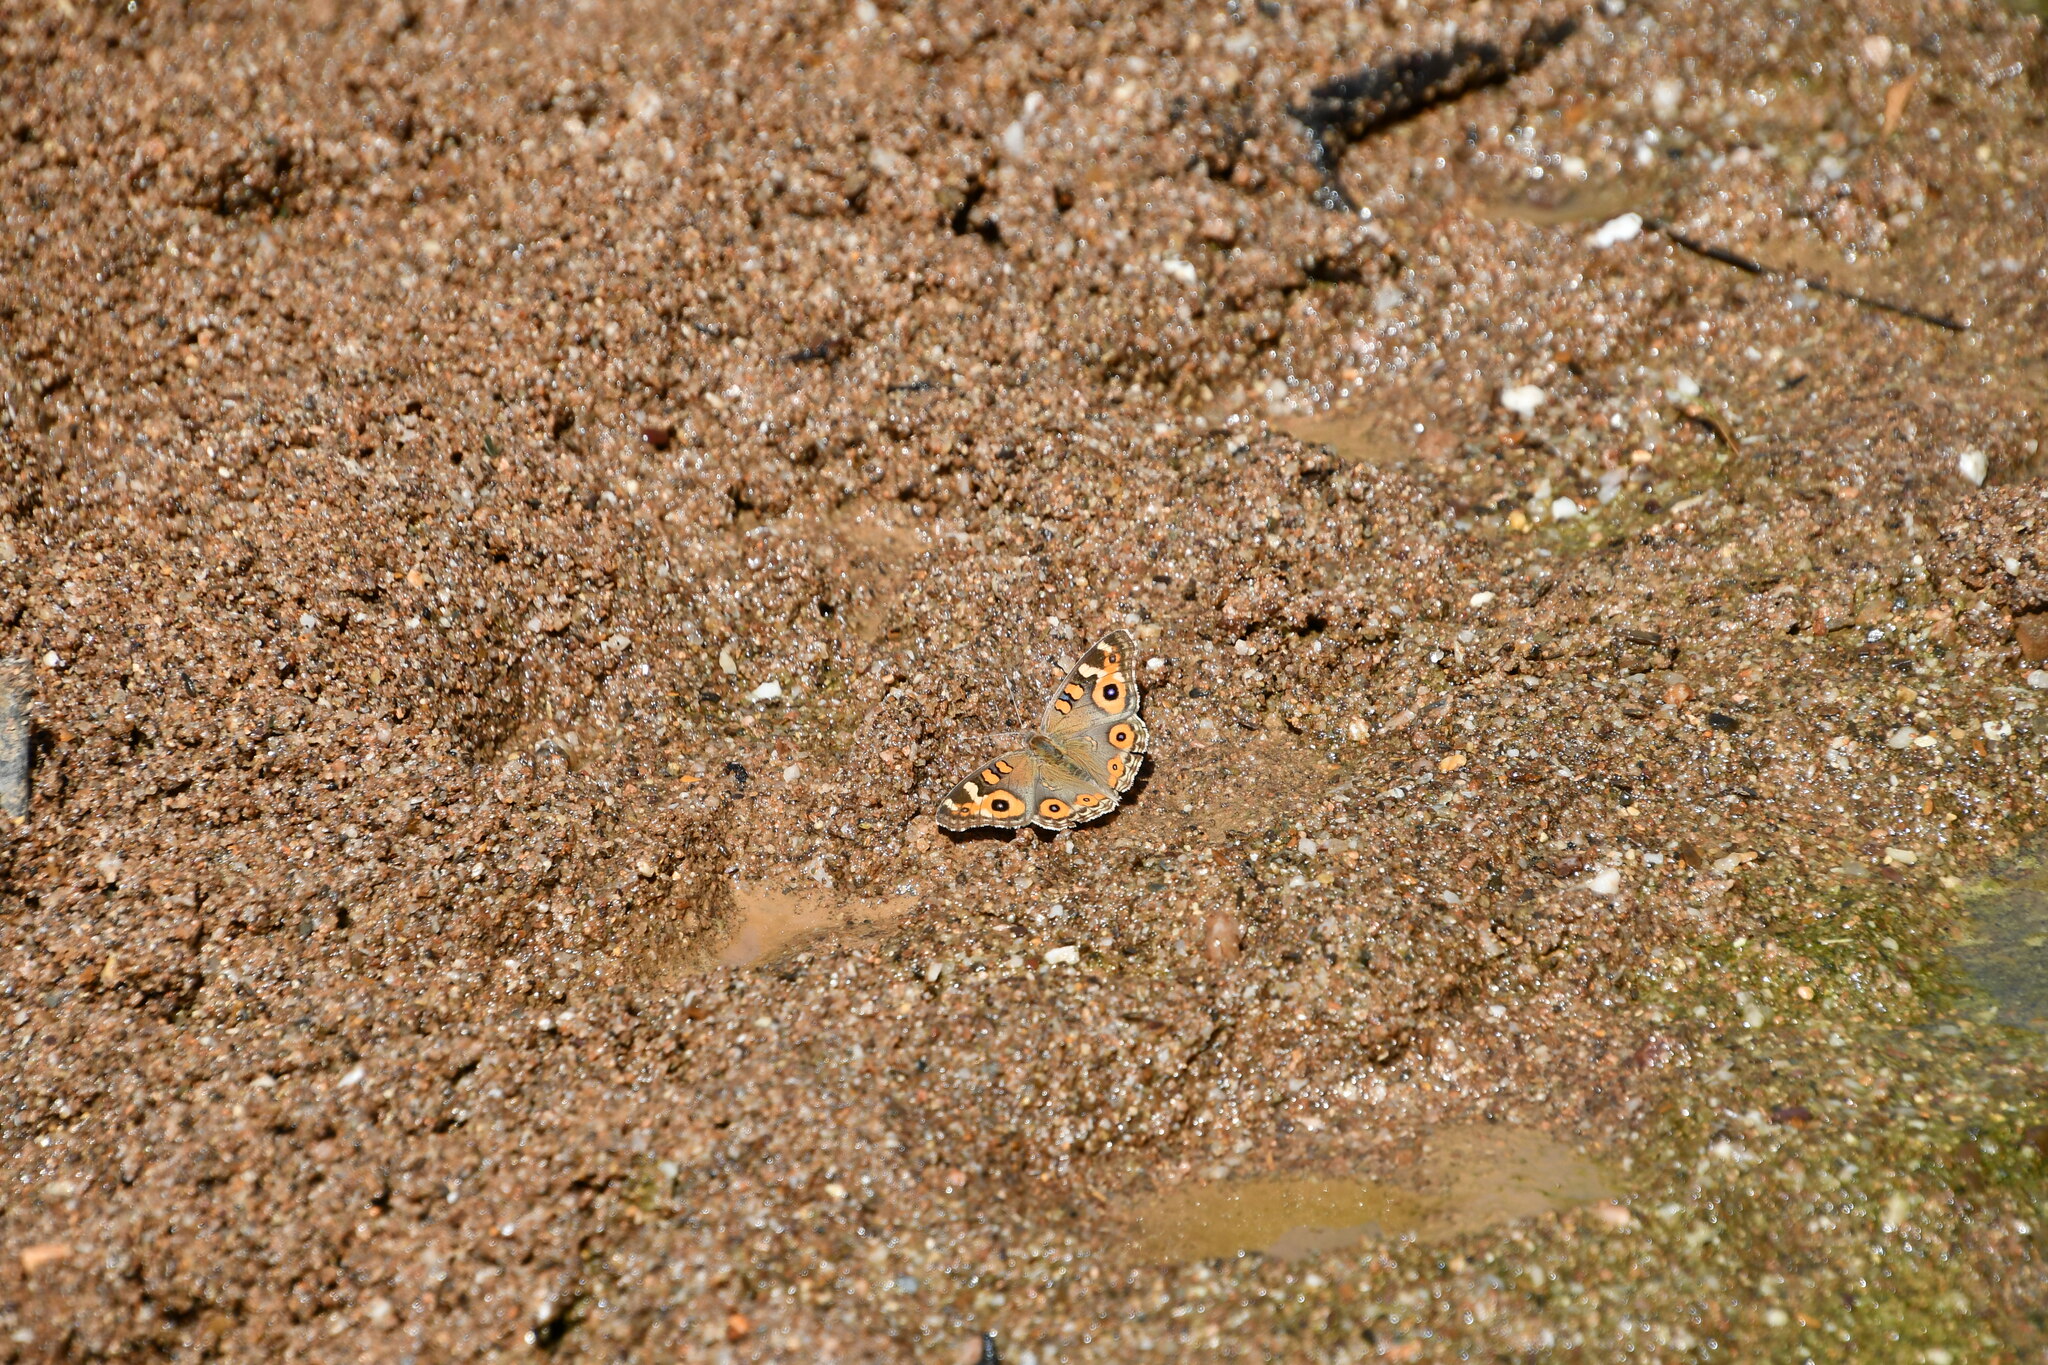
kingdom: Animalia
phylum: Arthropoda
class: Insecta
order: Lepidoptera
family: Nymphalidae
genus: Junonia
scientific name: Junonia villida
